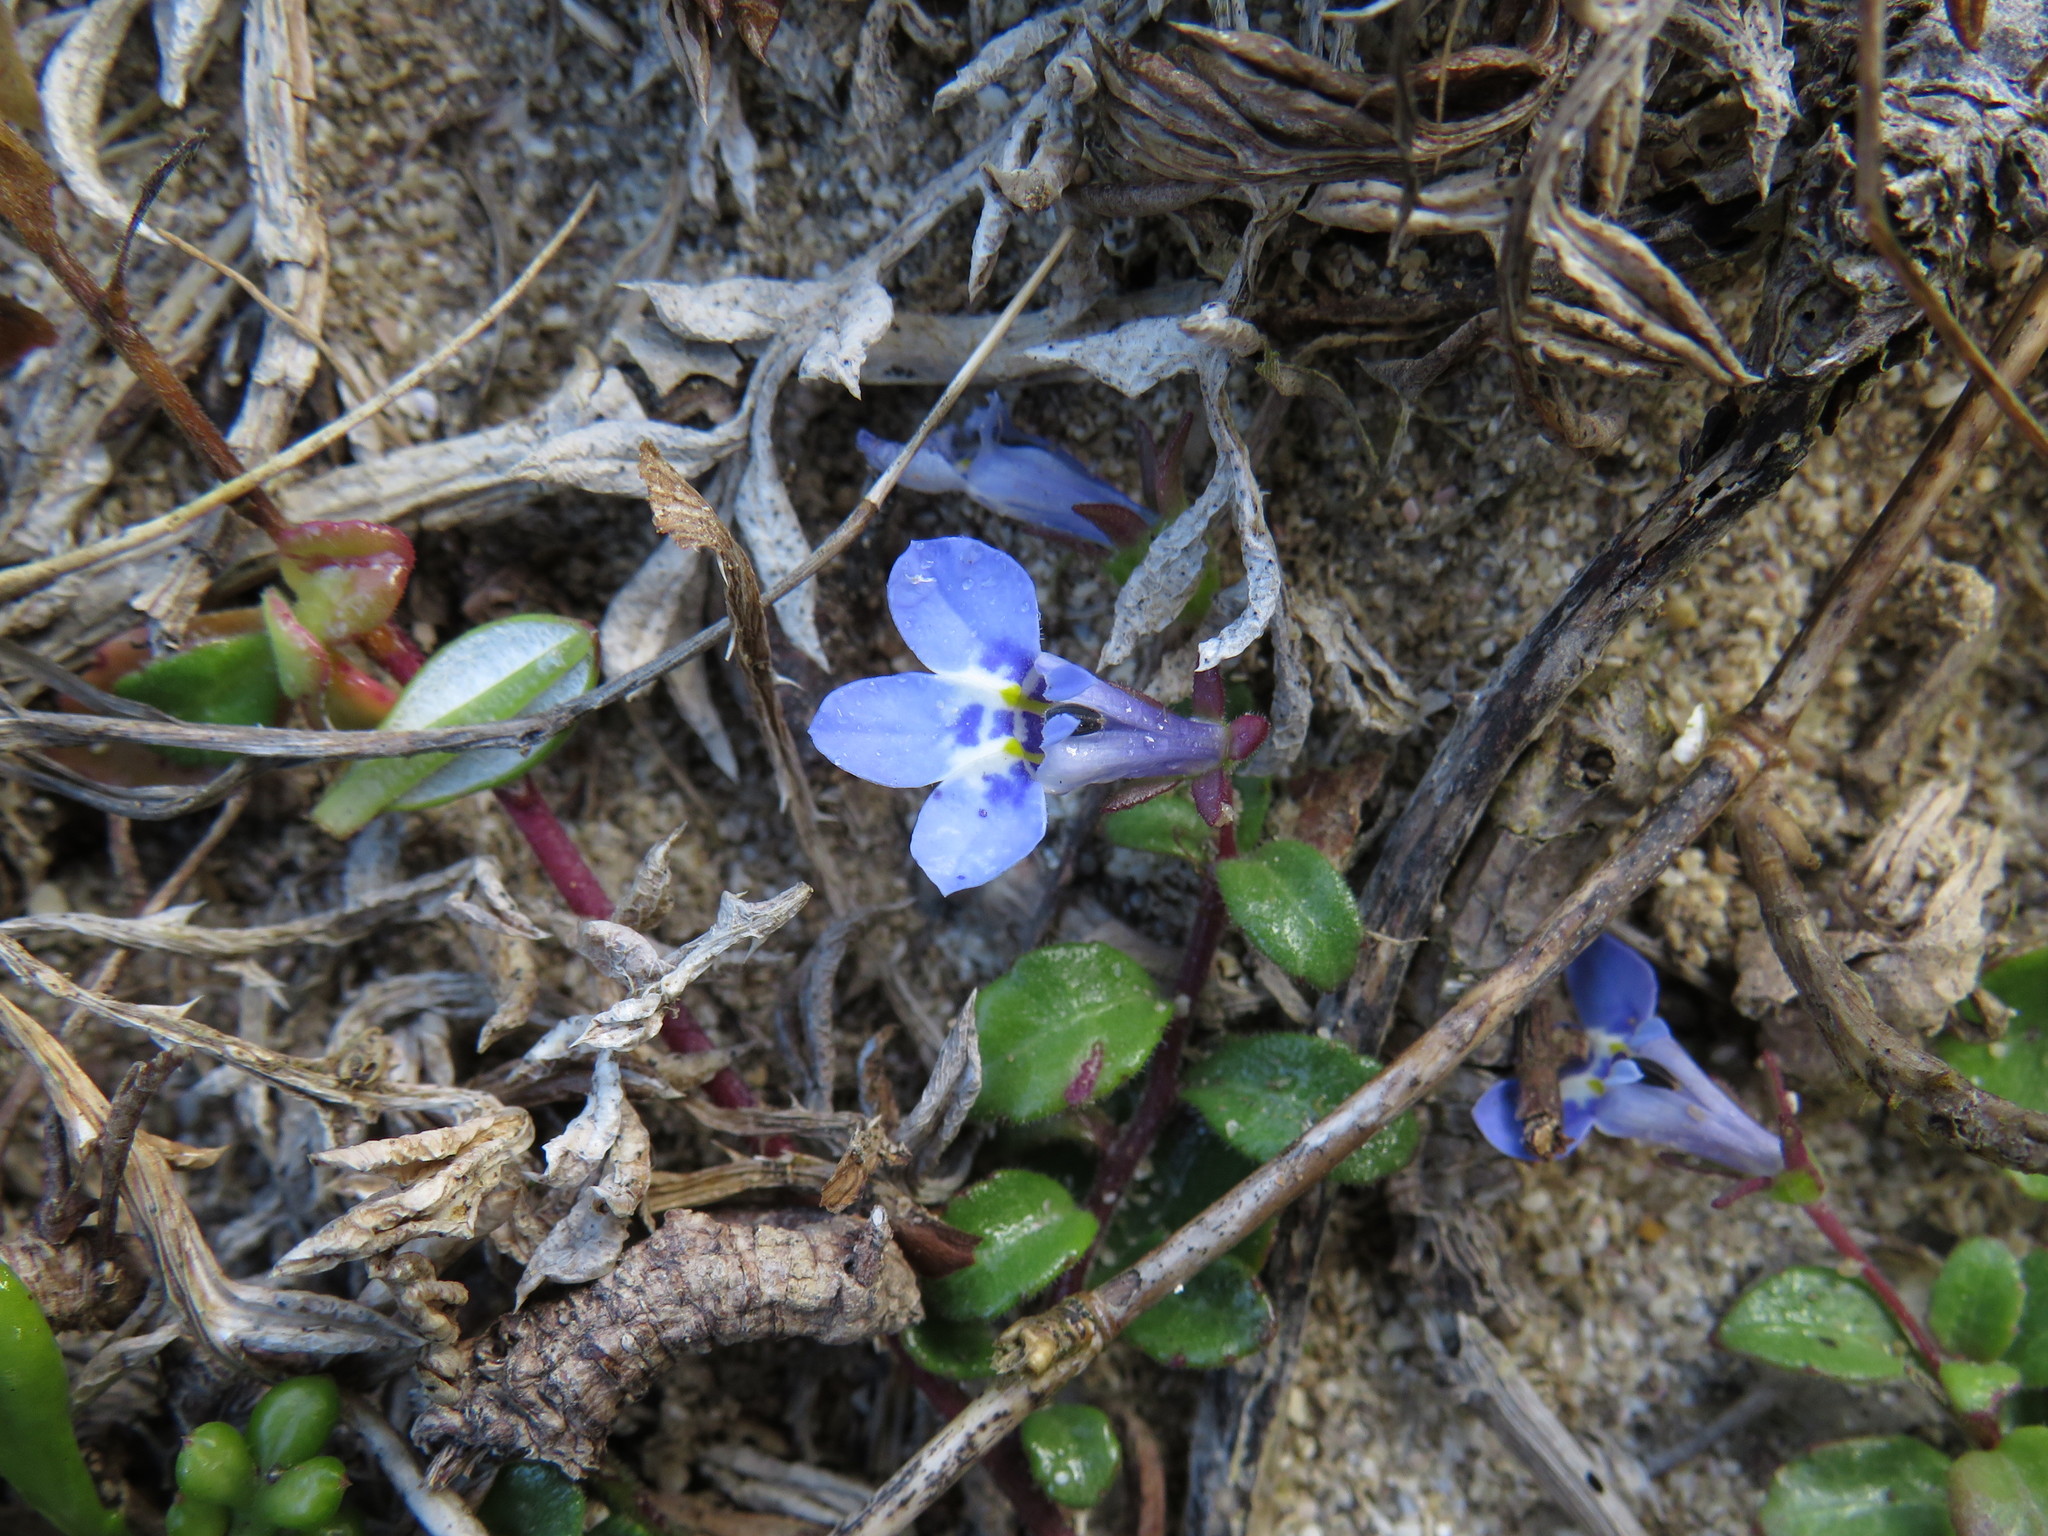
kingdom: Plantae
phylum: Tracheophyta
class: Magnoliopsida
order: Asterales
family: Campanulaceae
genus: Lobelia
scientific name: Lobelia boivinii
